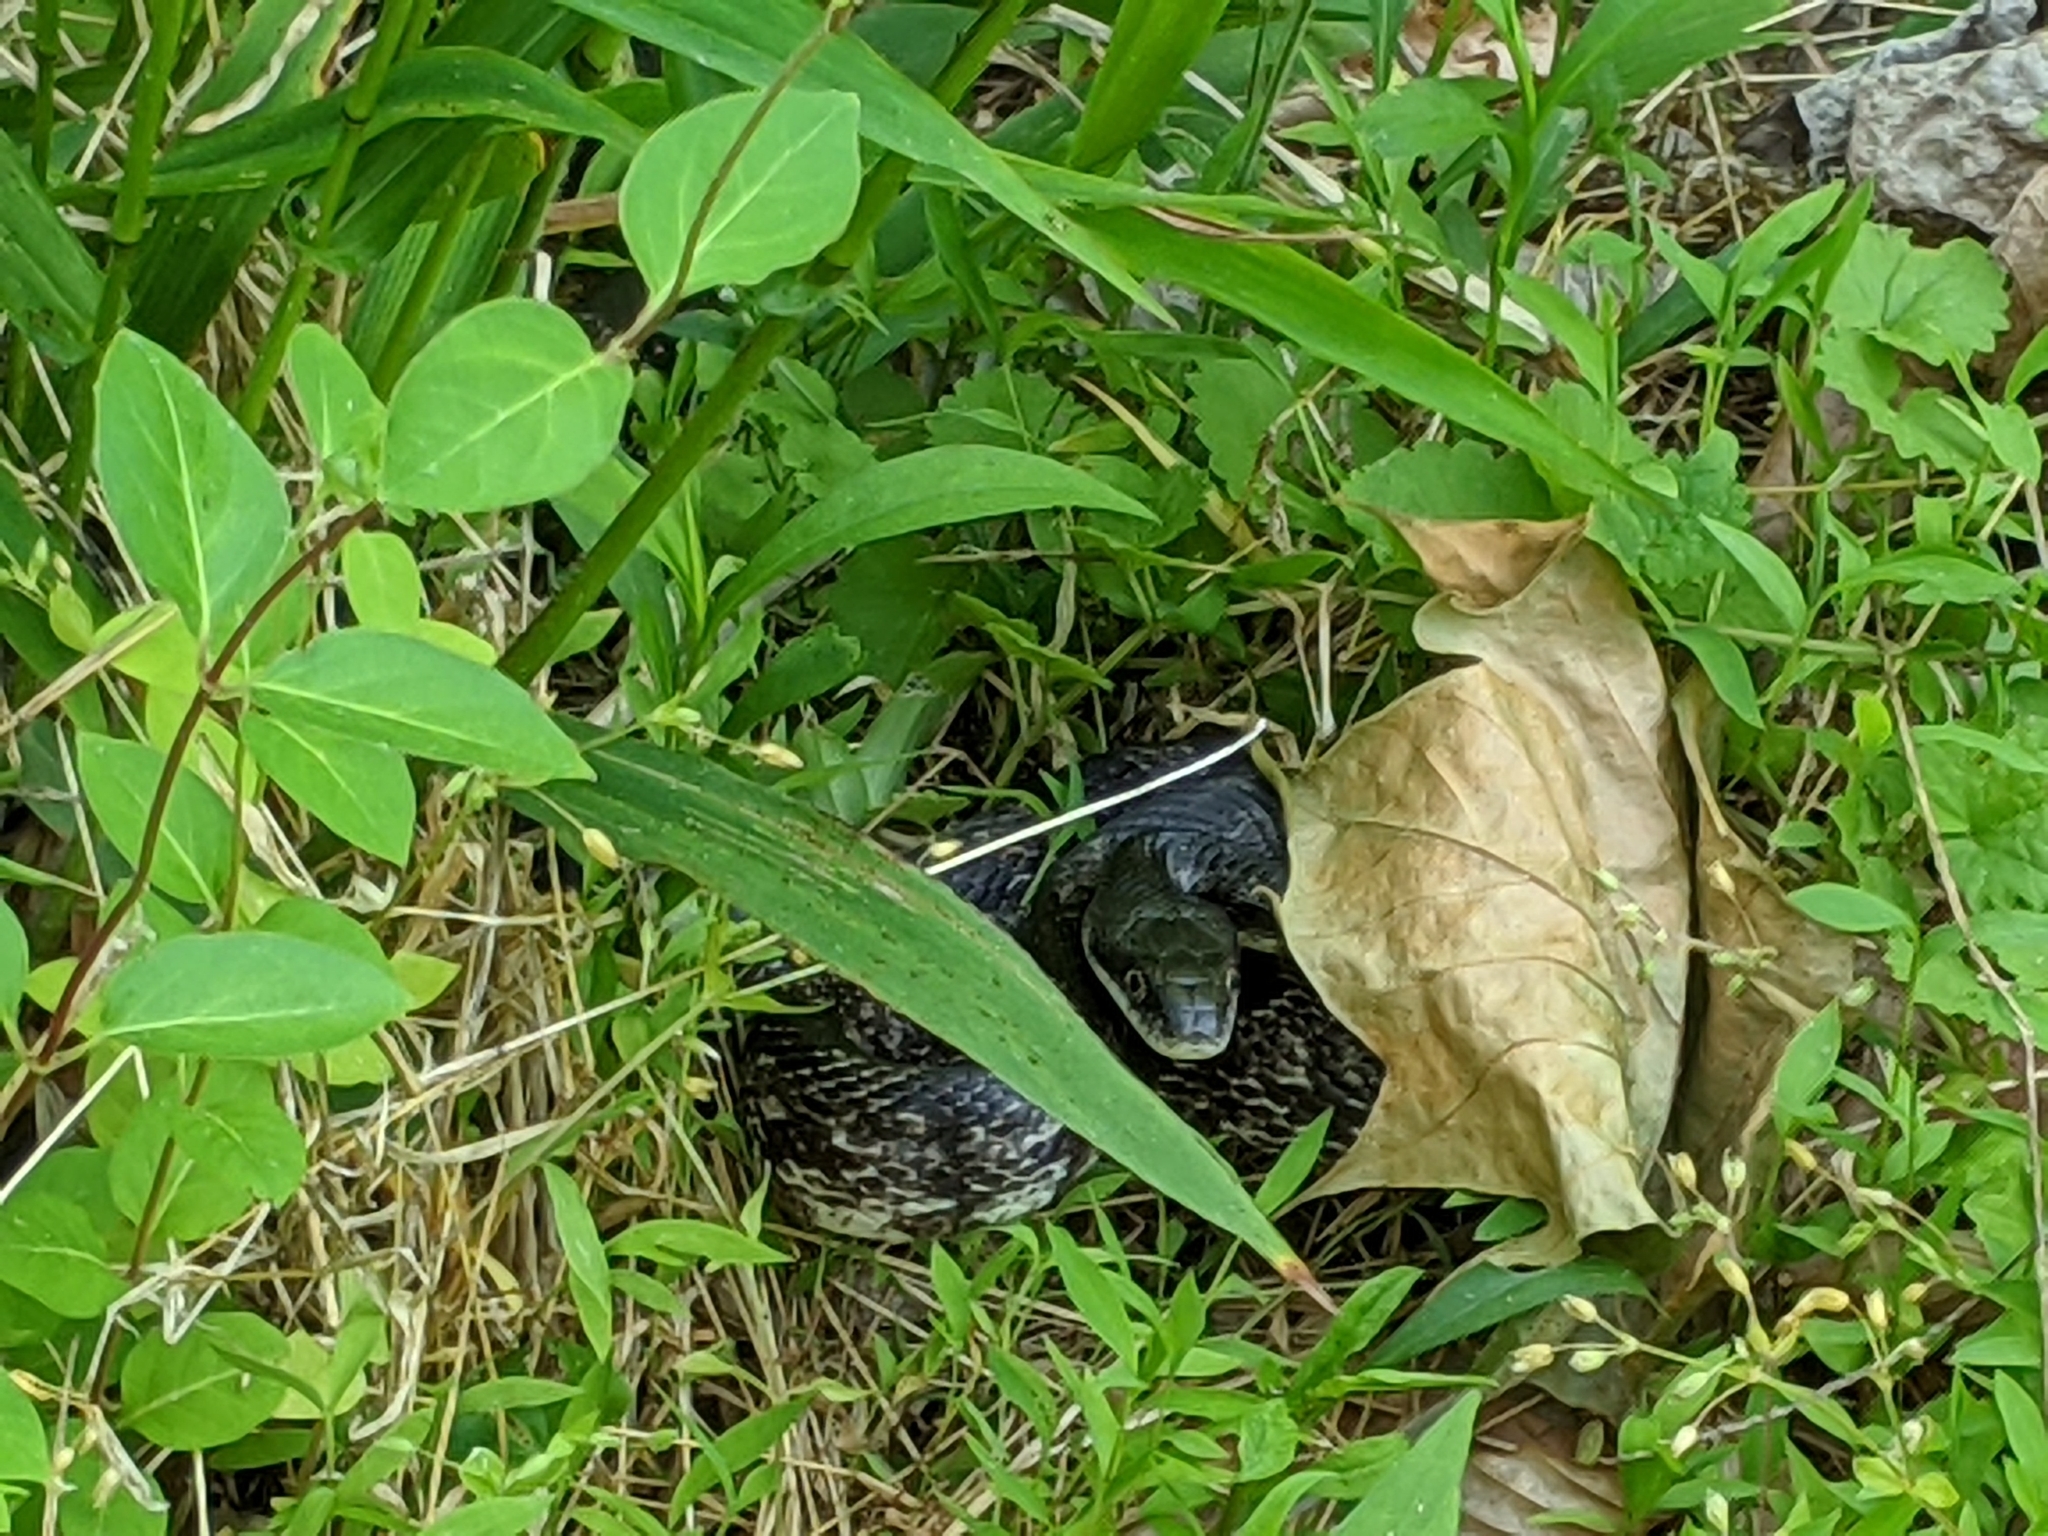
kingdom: Animalia
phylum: Chordata
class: Squamata
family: Colubridae
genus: Pantherophis
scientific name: Pantherophis alleghaniensis
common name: Eastern rat snake
